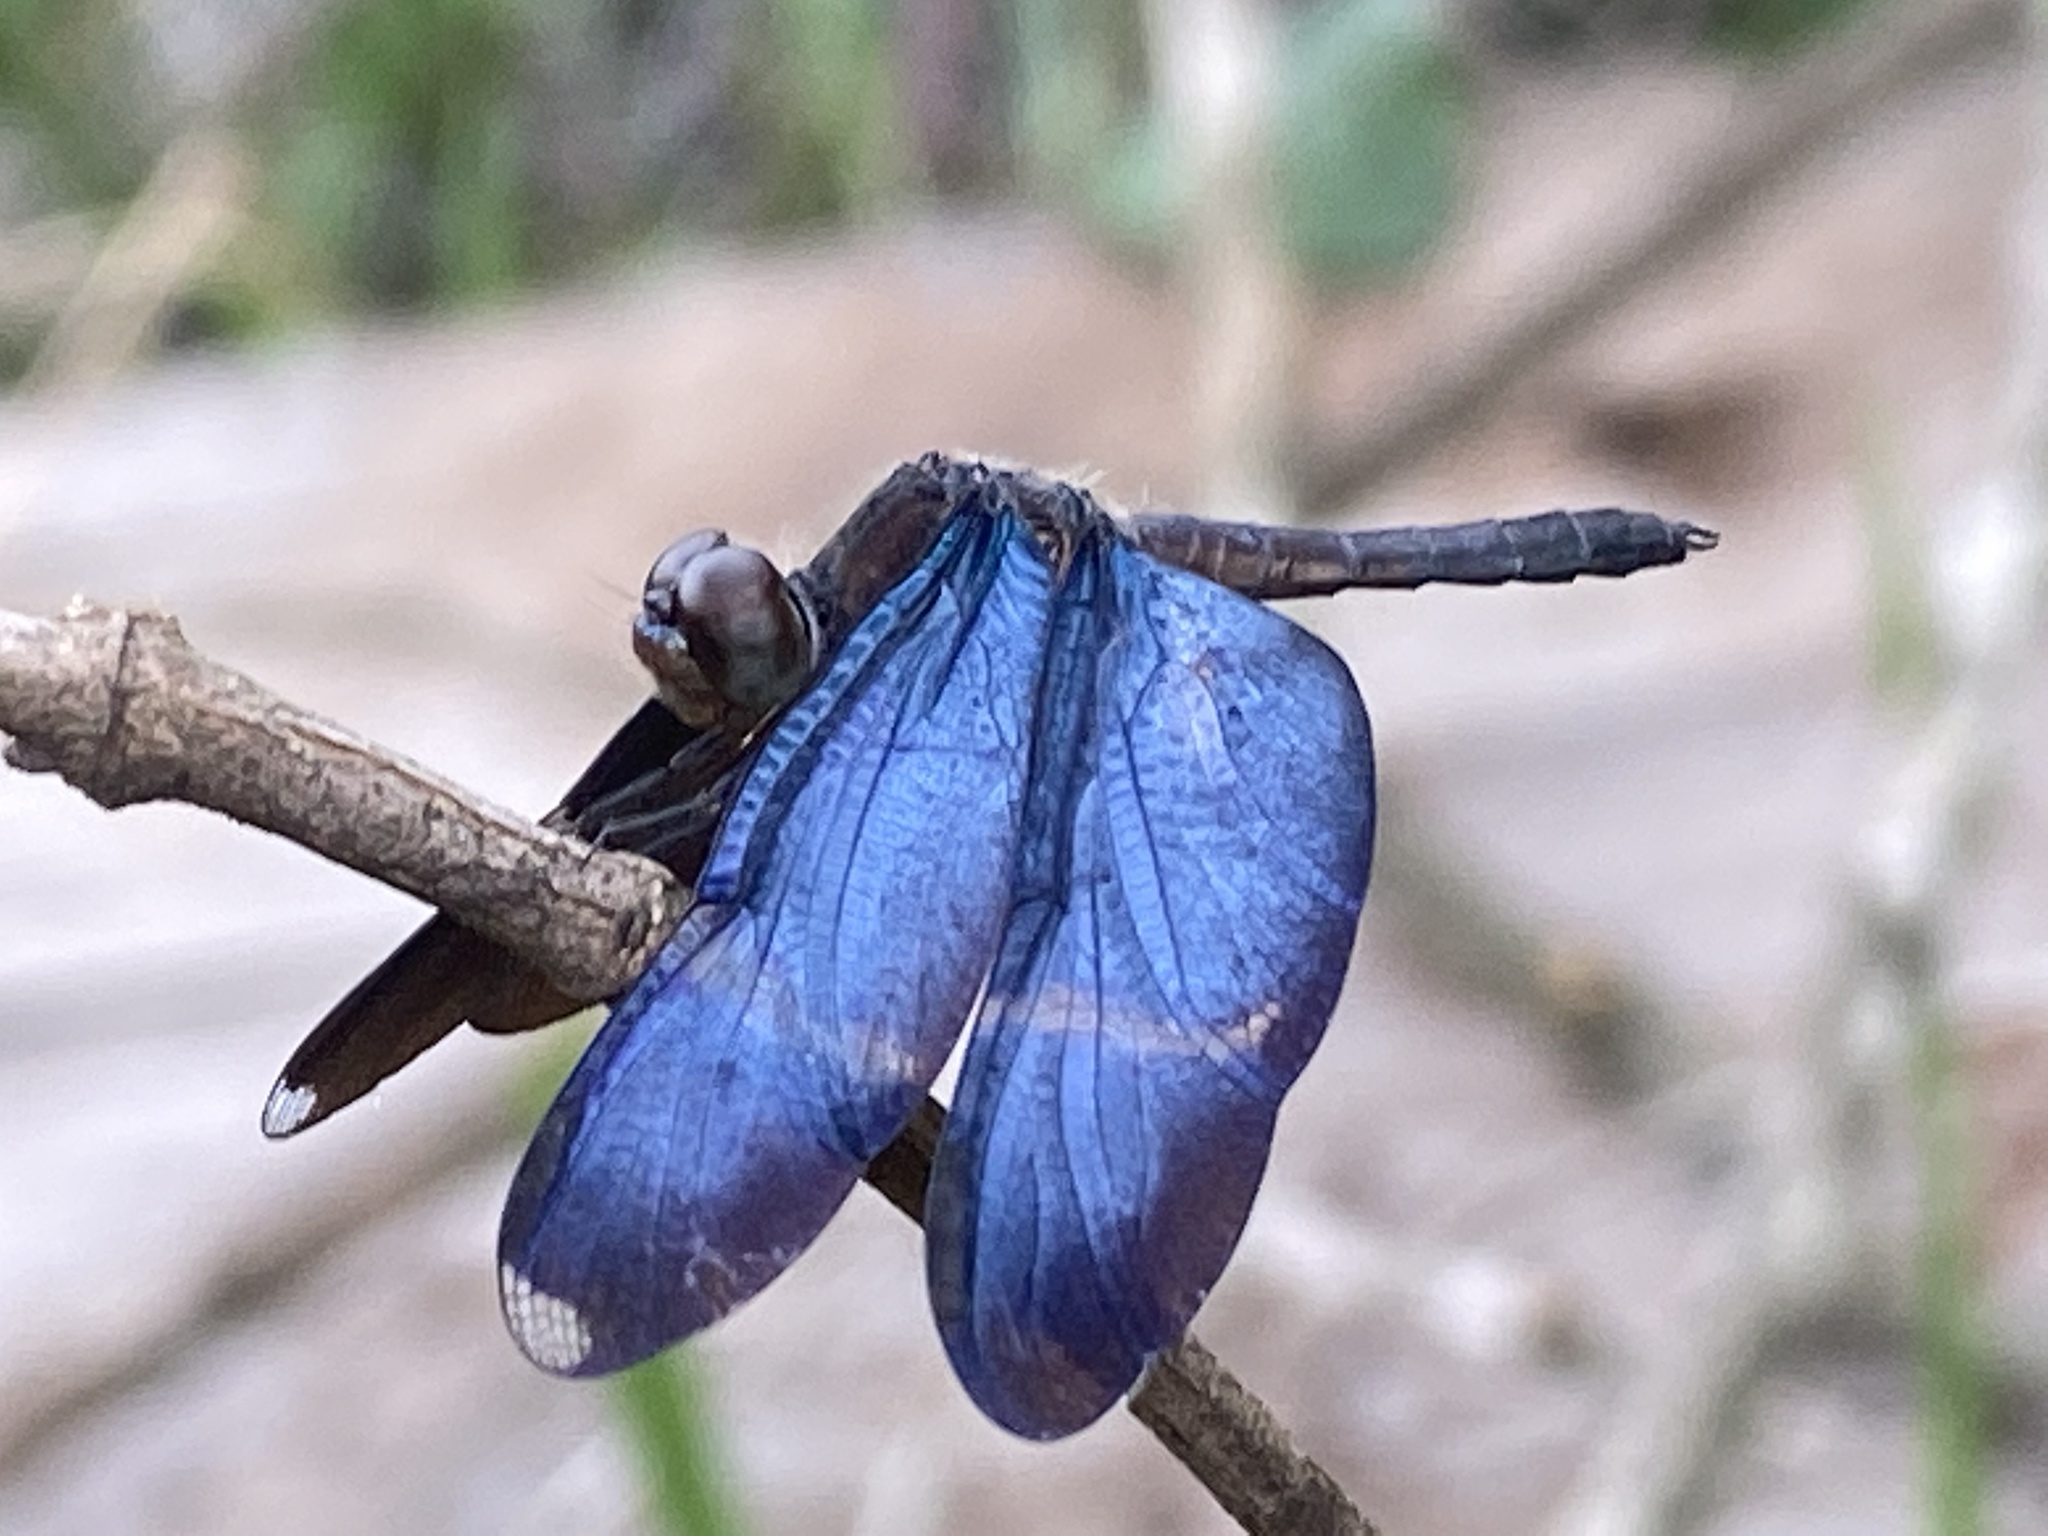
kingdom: Animalia
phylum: Arthropoda
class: Insecta
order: Odonata
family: Libellulidae
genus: Zenithoptera
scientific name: Zenithoptera lanei
